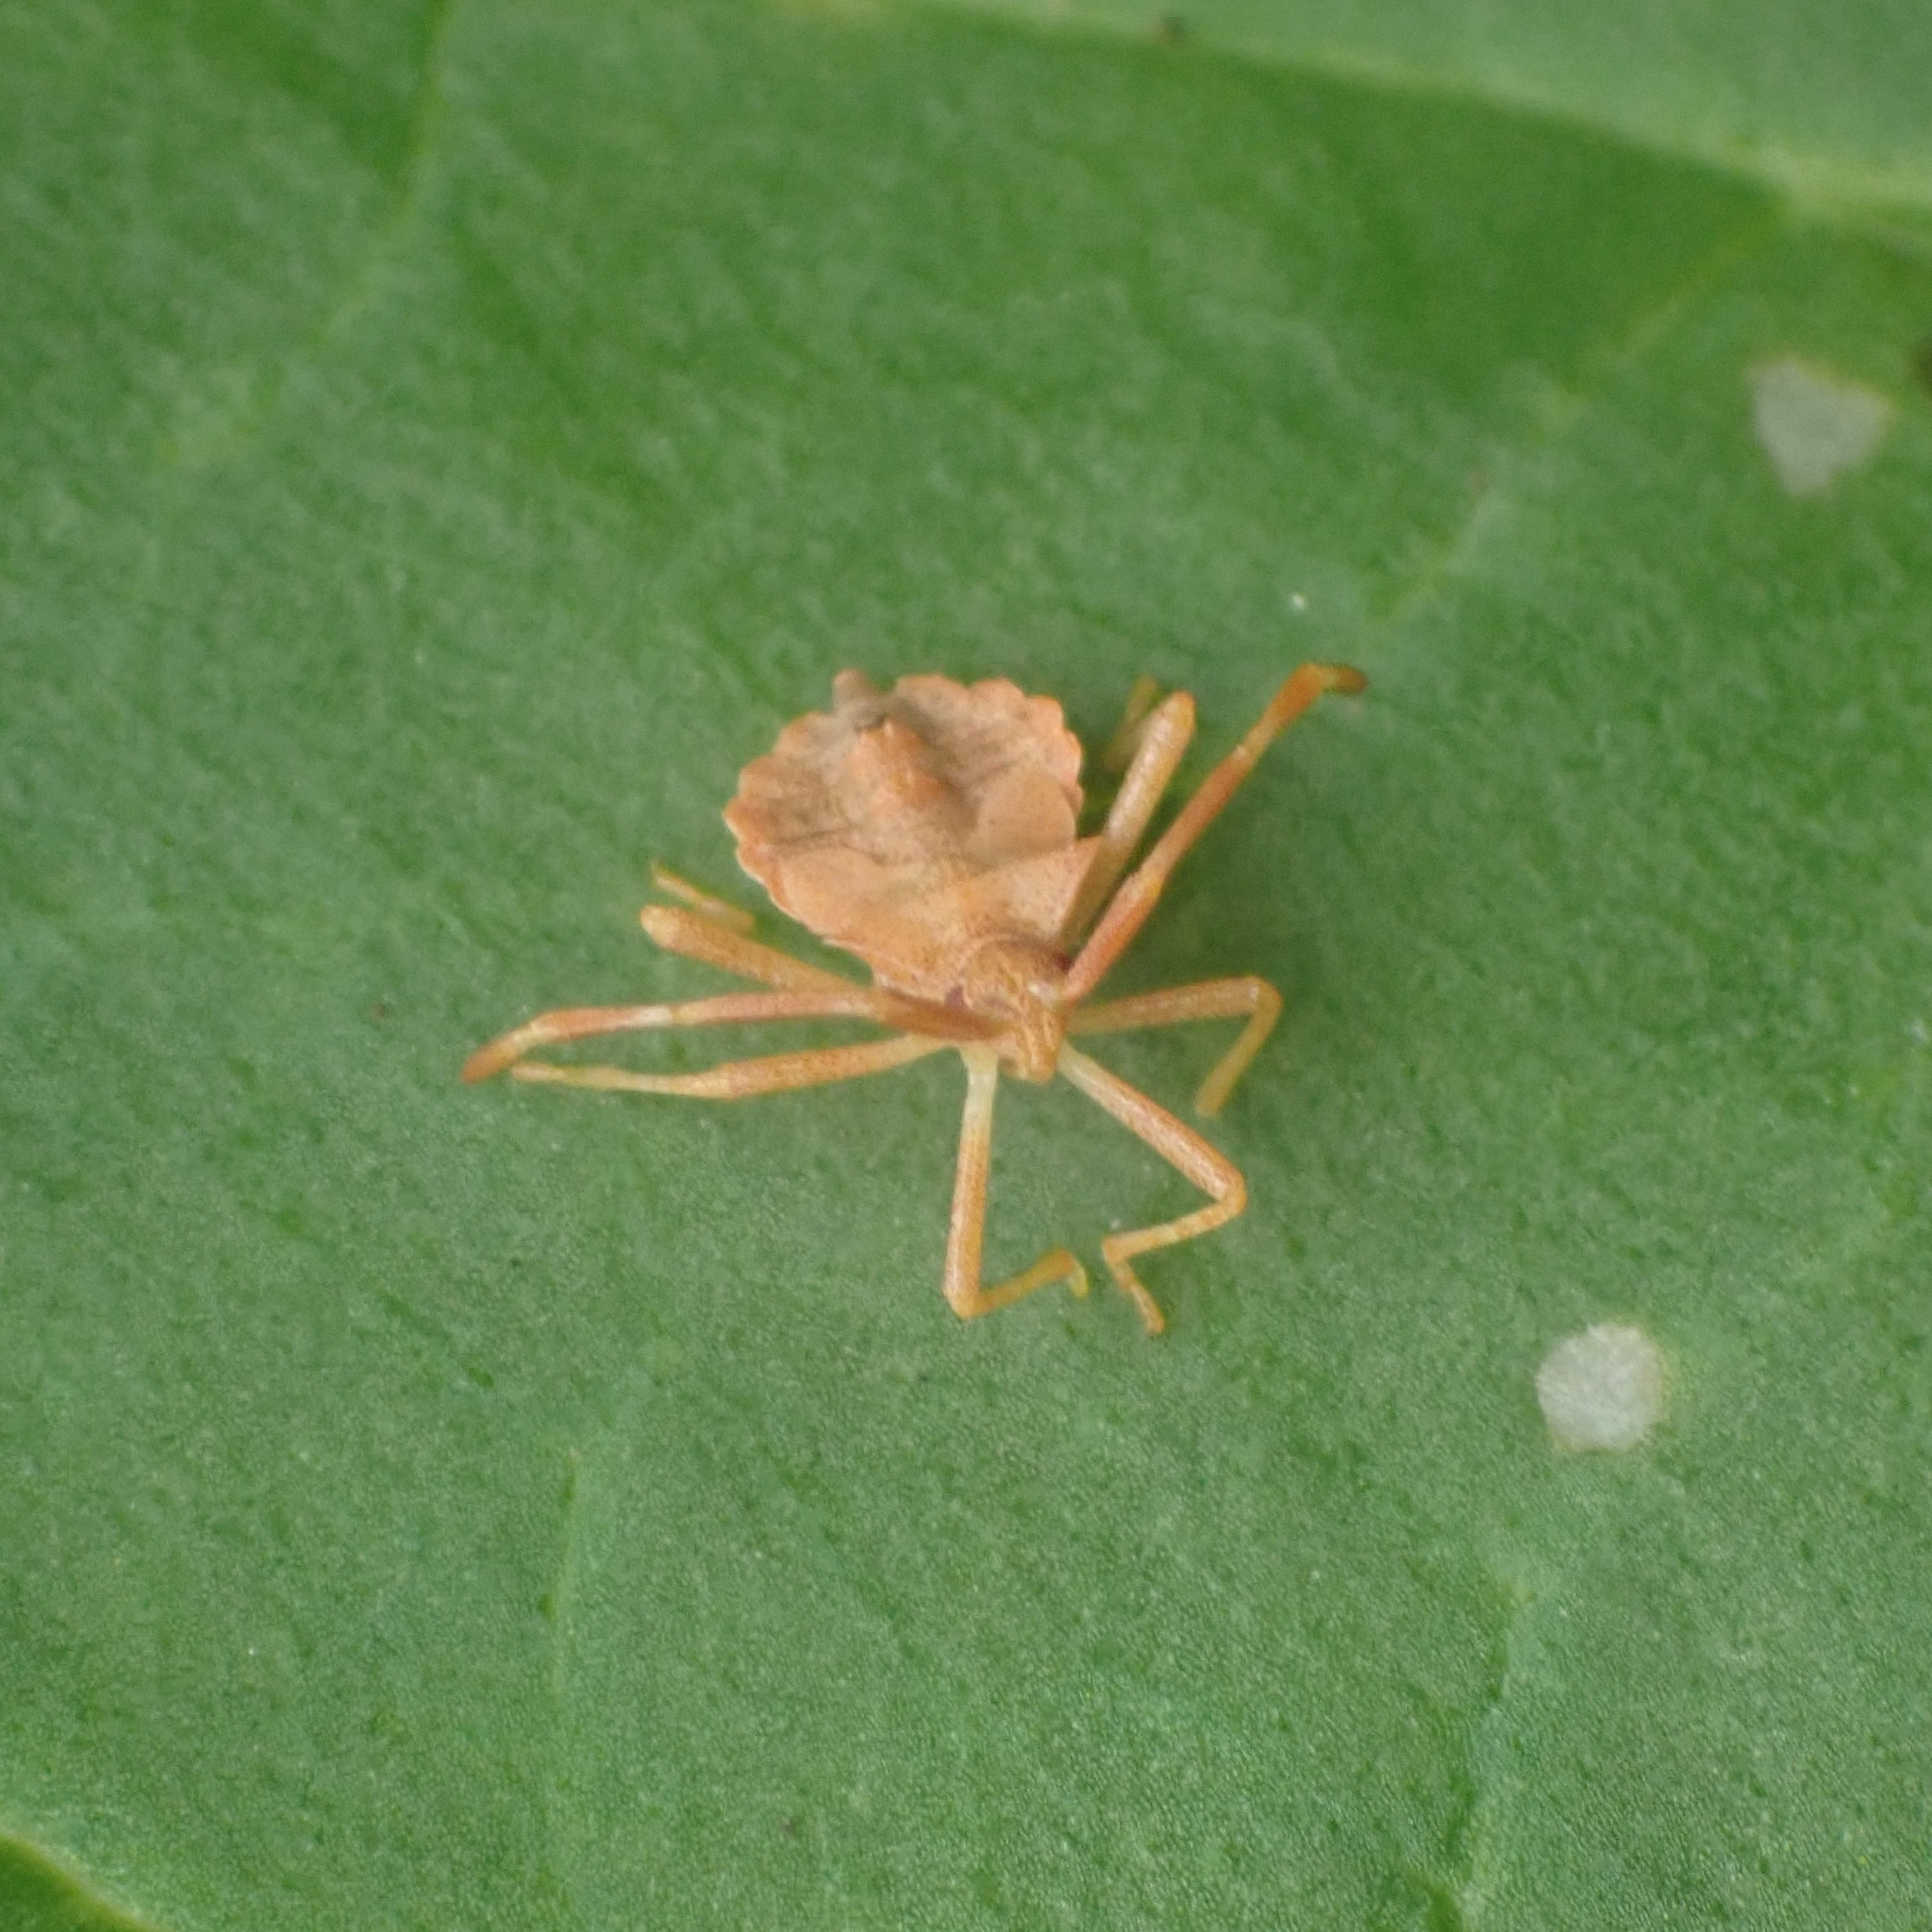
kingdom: Animalia
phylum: Arthropoda
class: Insecta
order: Hemiptera
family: Coreidae
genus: Coreus
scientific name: Coreus marginatus
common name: Dock bug
